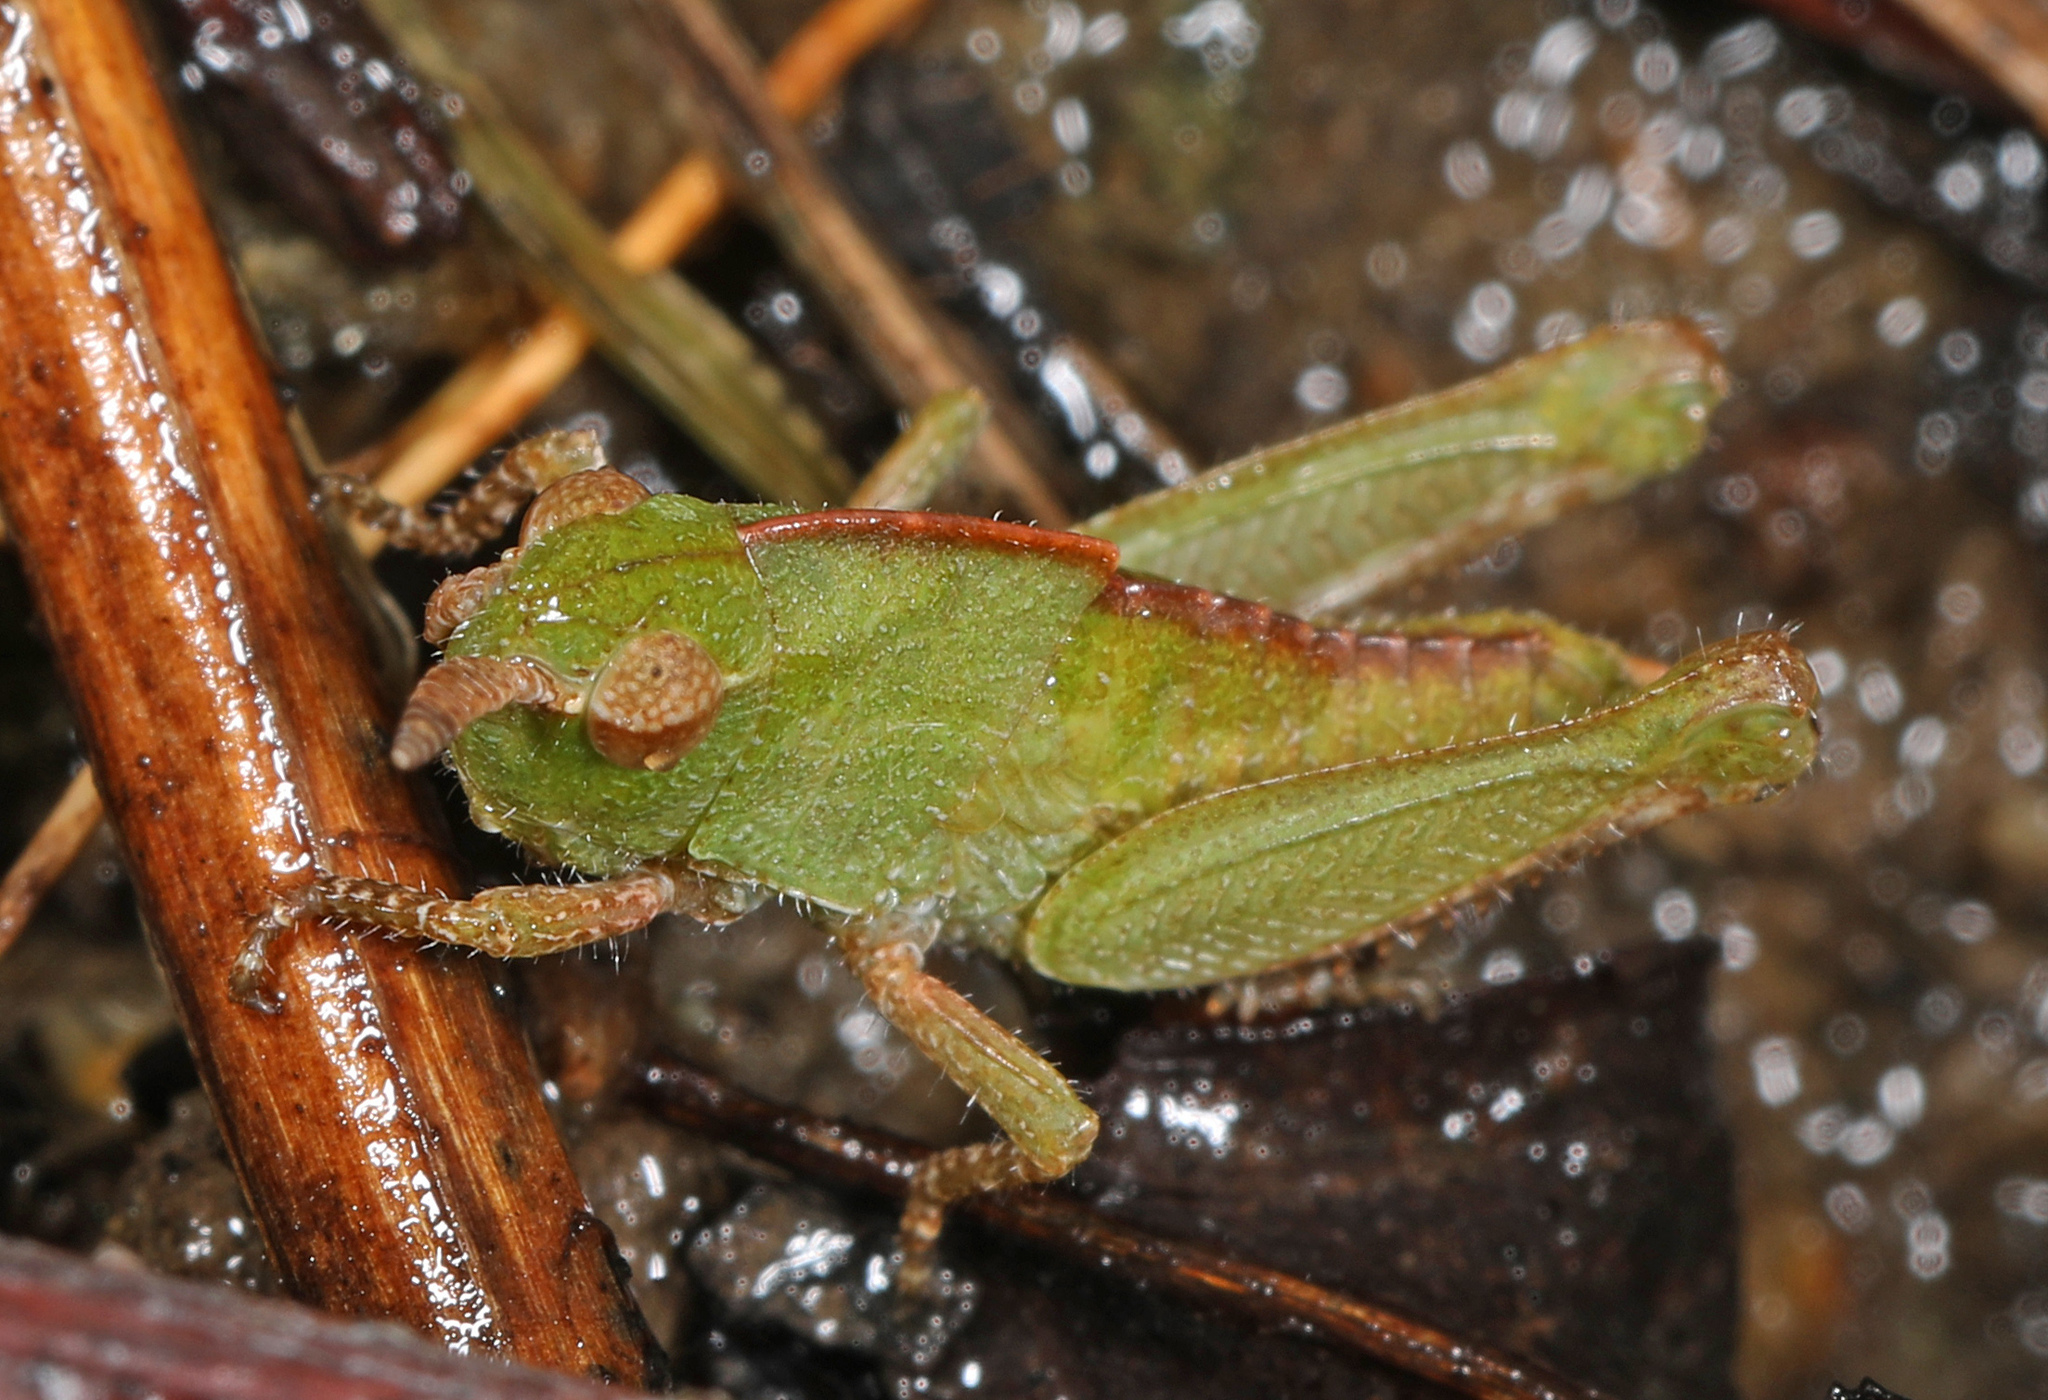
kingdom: Animalia
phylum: Arthropoda
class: Insecta
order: Orthoptera
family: Acrididae
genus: Chortophaga
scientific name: Chortophaga viridifasciata
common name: Green-striped grasshopper
